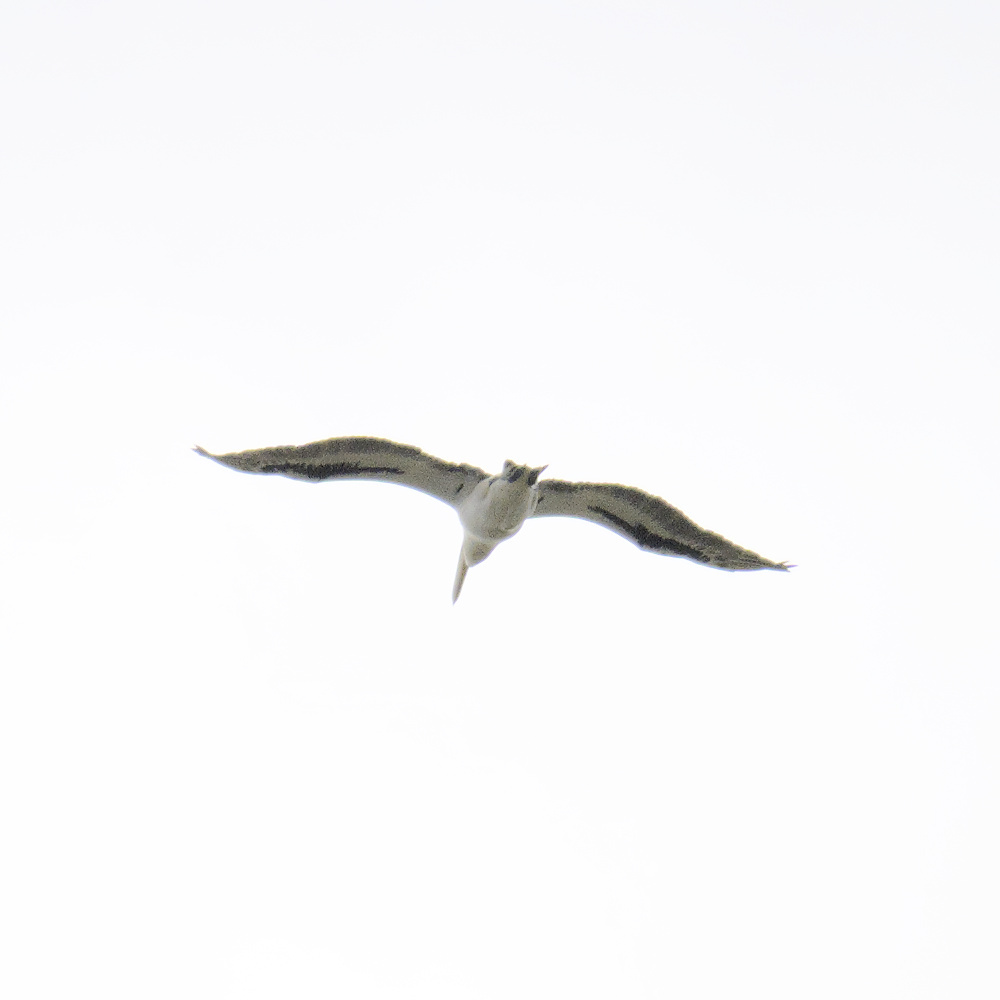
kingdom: Animalia
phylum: Chordata
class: Aves
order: Pelecaniformes
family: Pelecanidae
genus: Pelecanus
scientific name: Pelecanus conspicillatus
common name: Australian pelican
